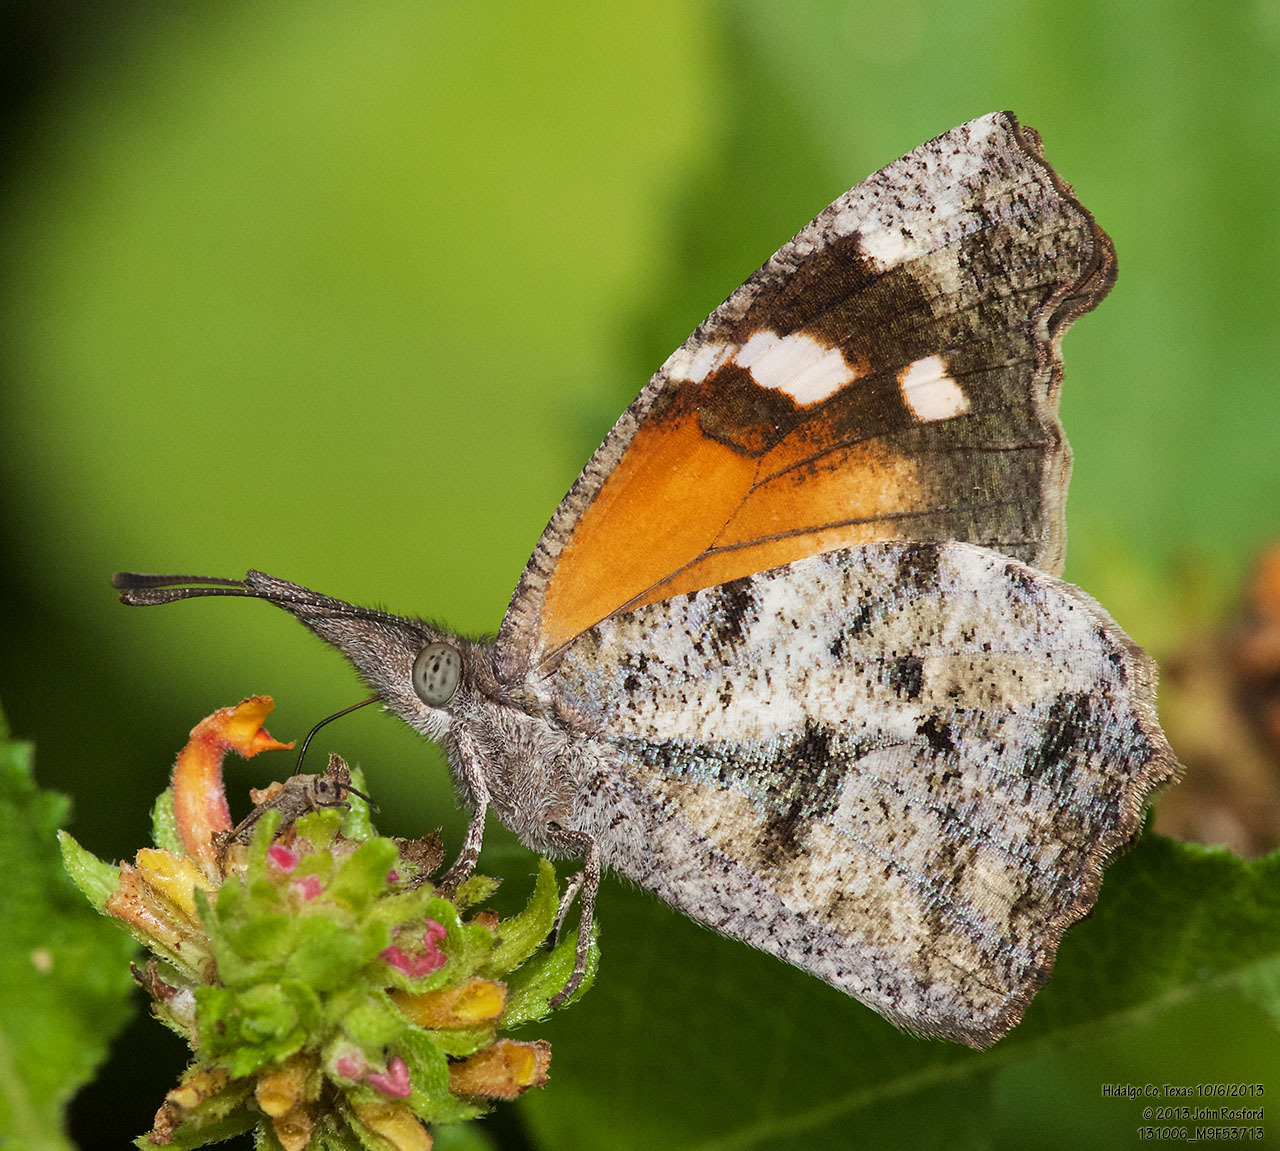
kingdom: Animalia
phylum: Arthropoda
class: Insecta
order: Lepidoptera
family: Nymphalidae
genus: Libytheana
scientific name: Libytheana carinenta
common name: American snout
